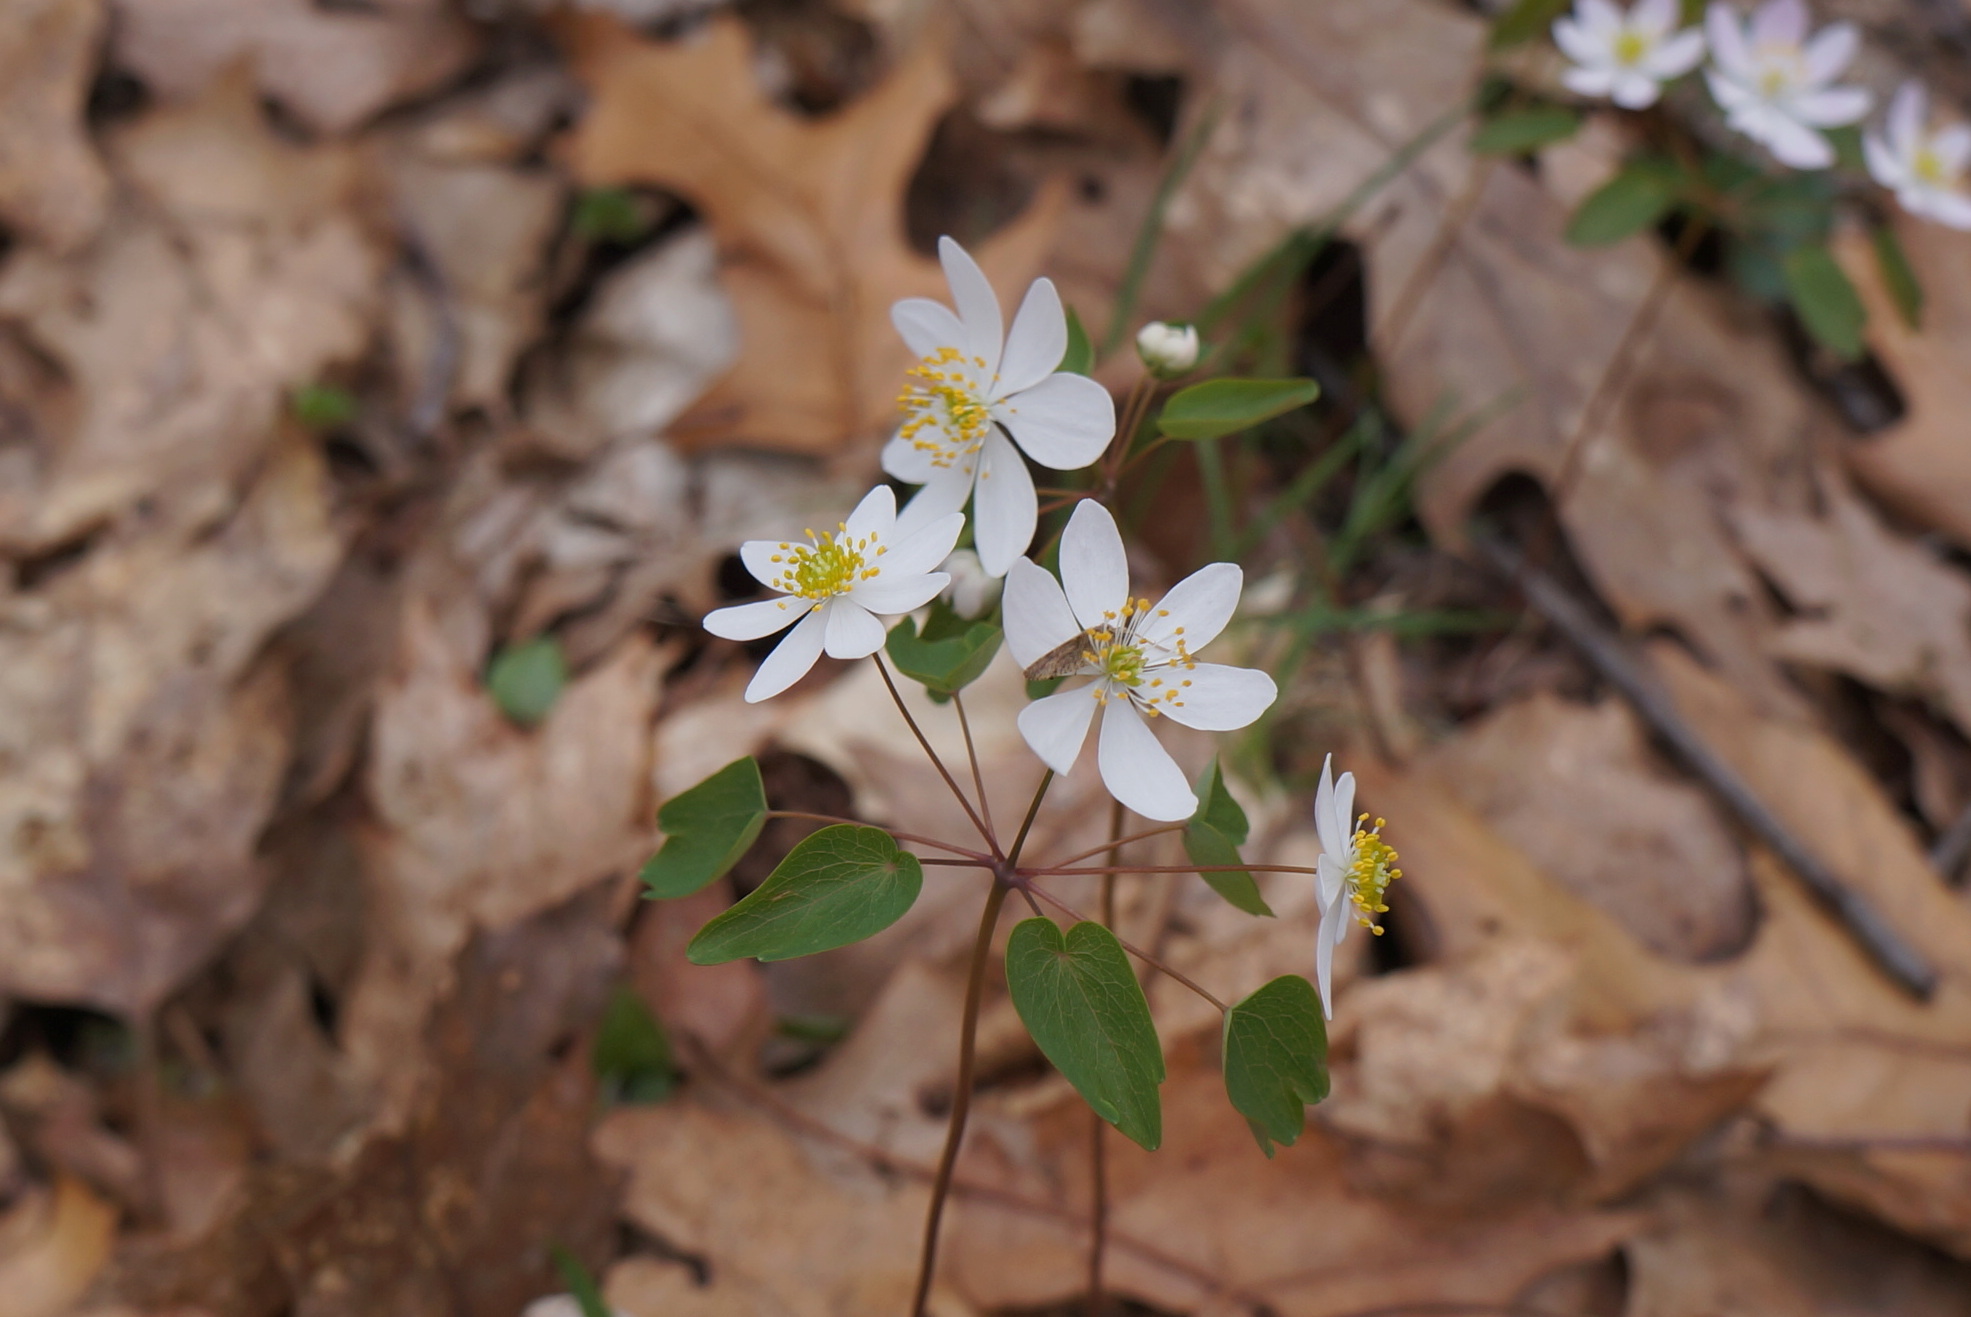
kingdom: Plantae
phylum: Tracheophyta
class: Magnoliopsida
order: Ranunculales
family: Ranunculaceae
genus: Thalictrum
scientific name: Thalictrum thalictroides
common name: Rue-anemone
